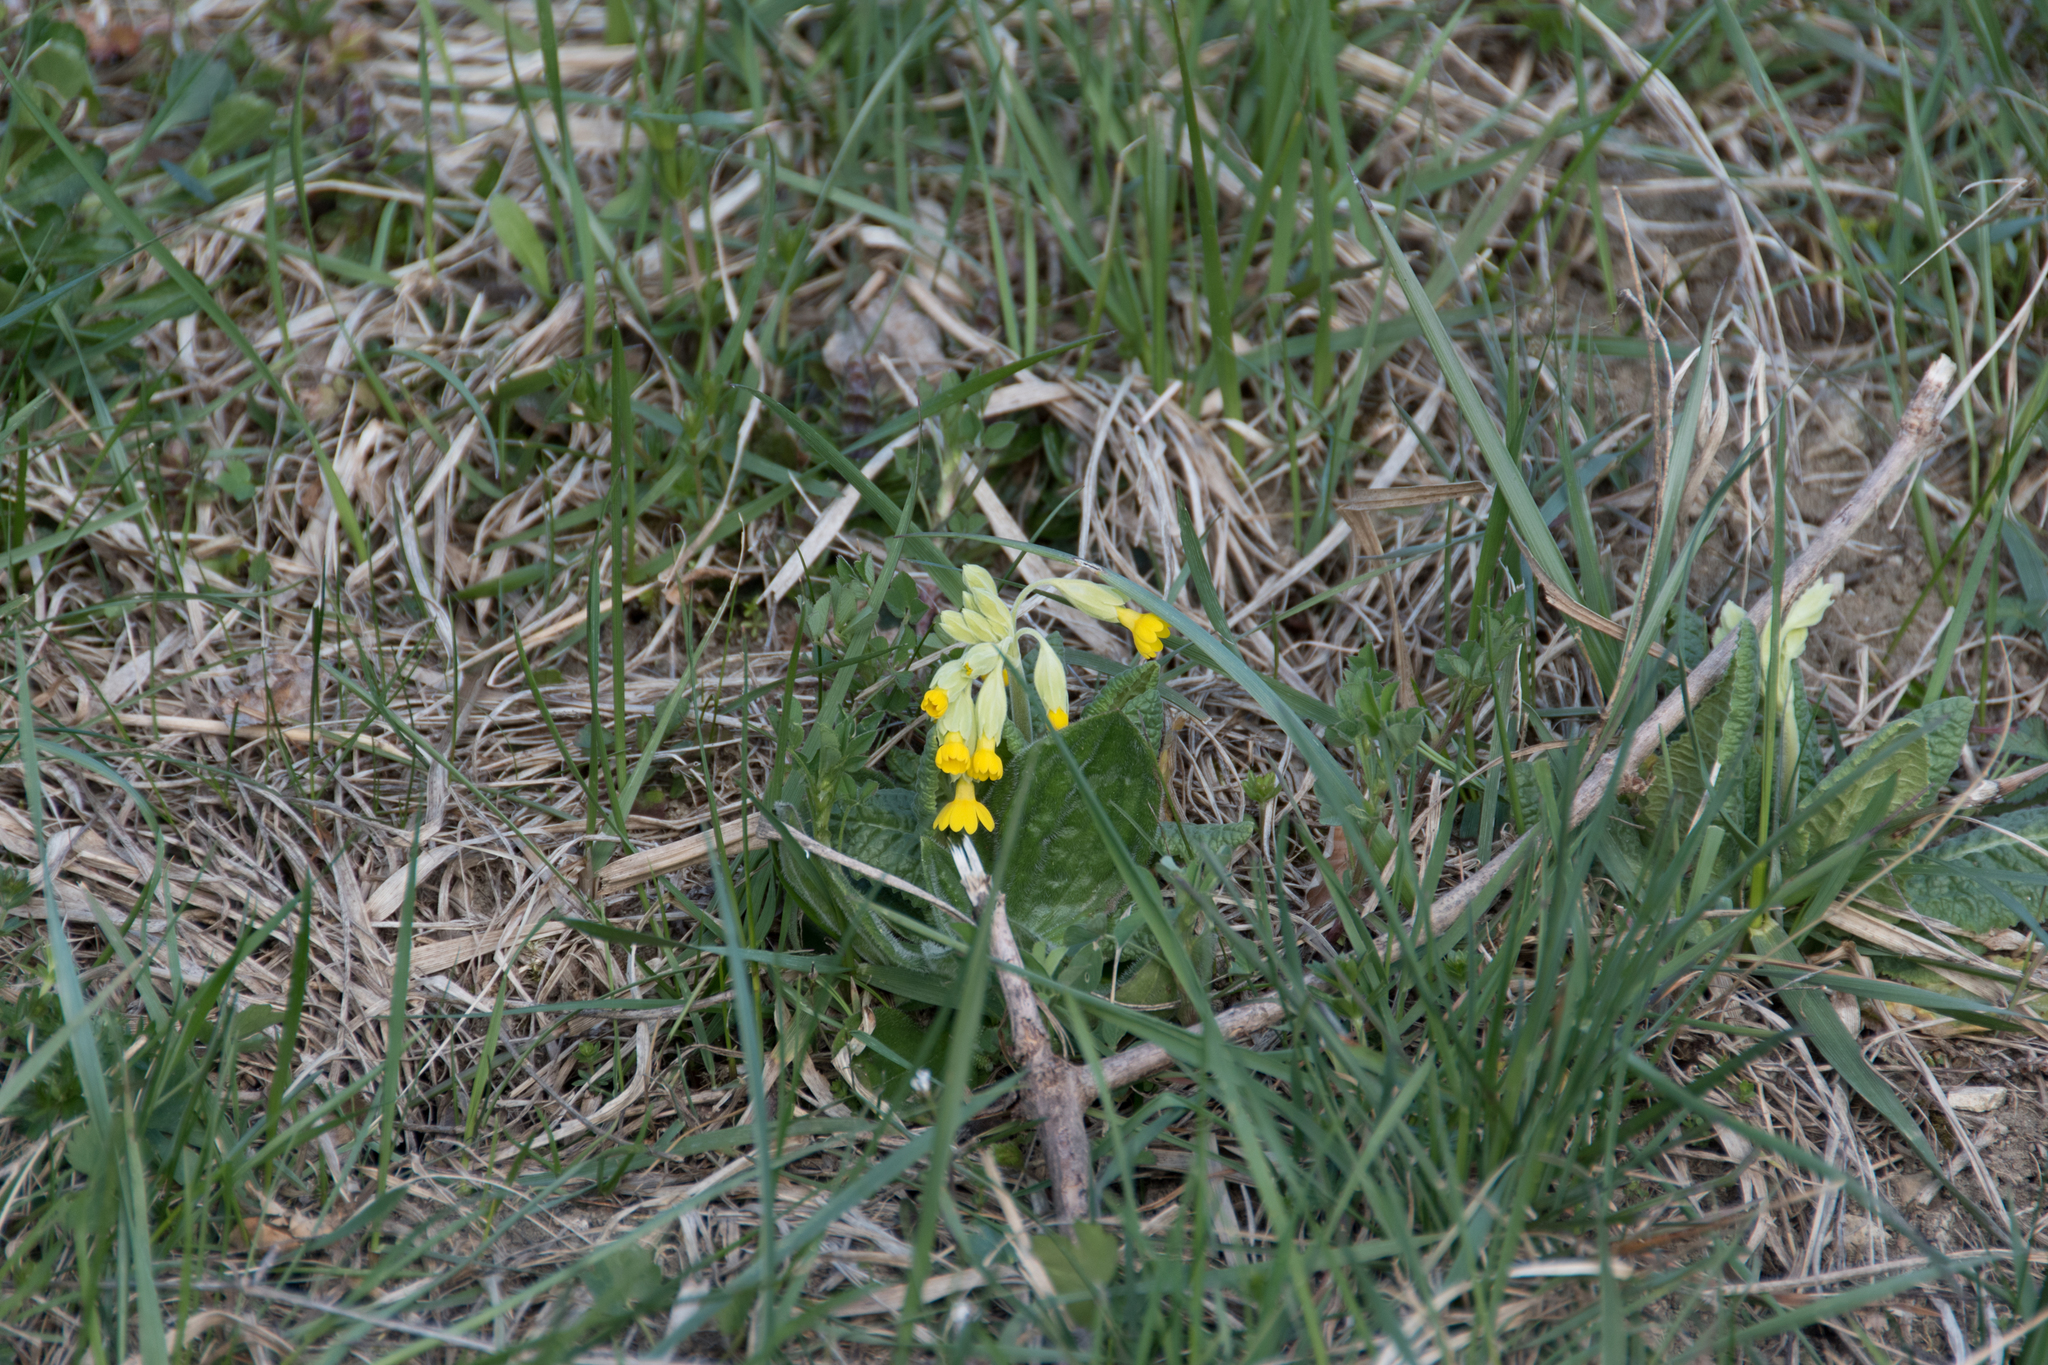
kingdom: Plantae
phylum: Tracheophyta
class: Magnoliopsida
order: Ericales
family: Primulaceae
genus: Primula
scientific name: Primula veris
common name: Cowslip
